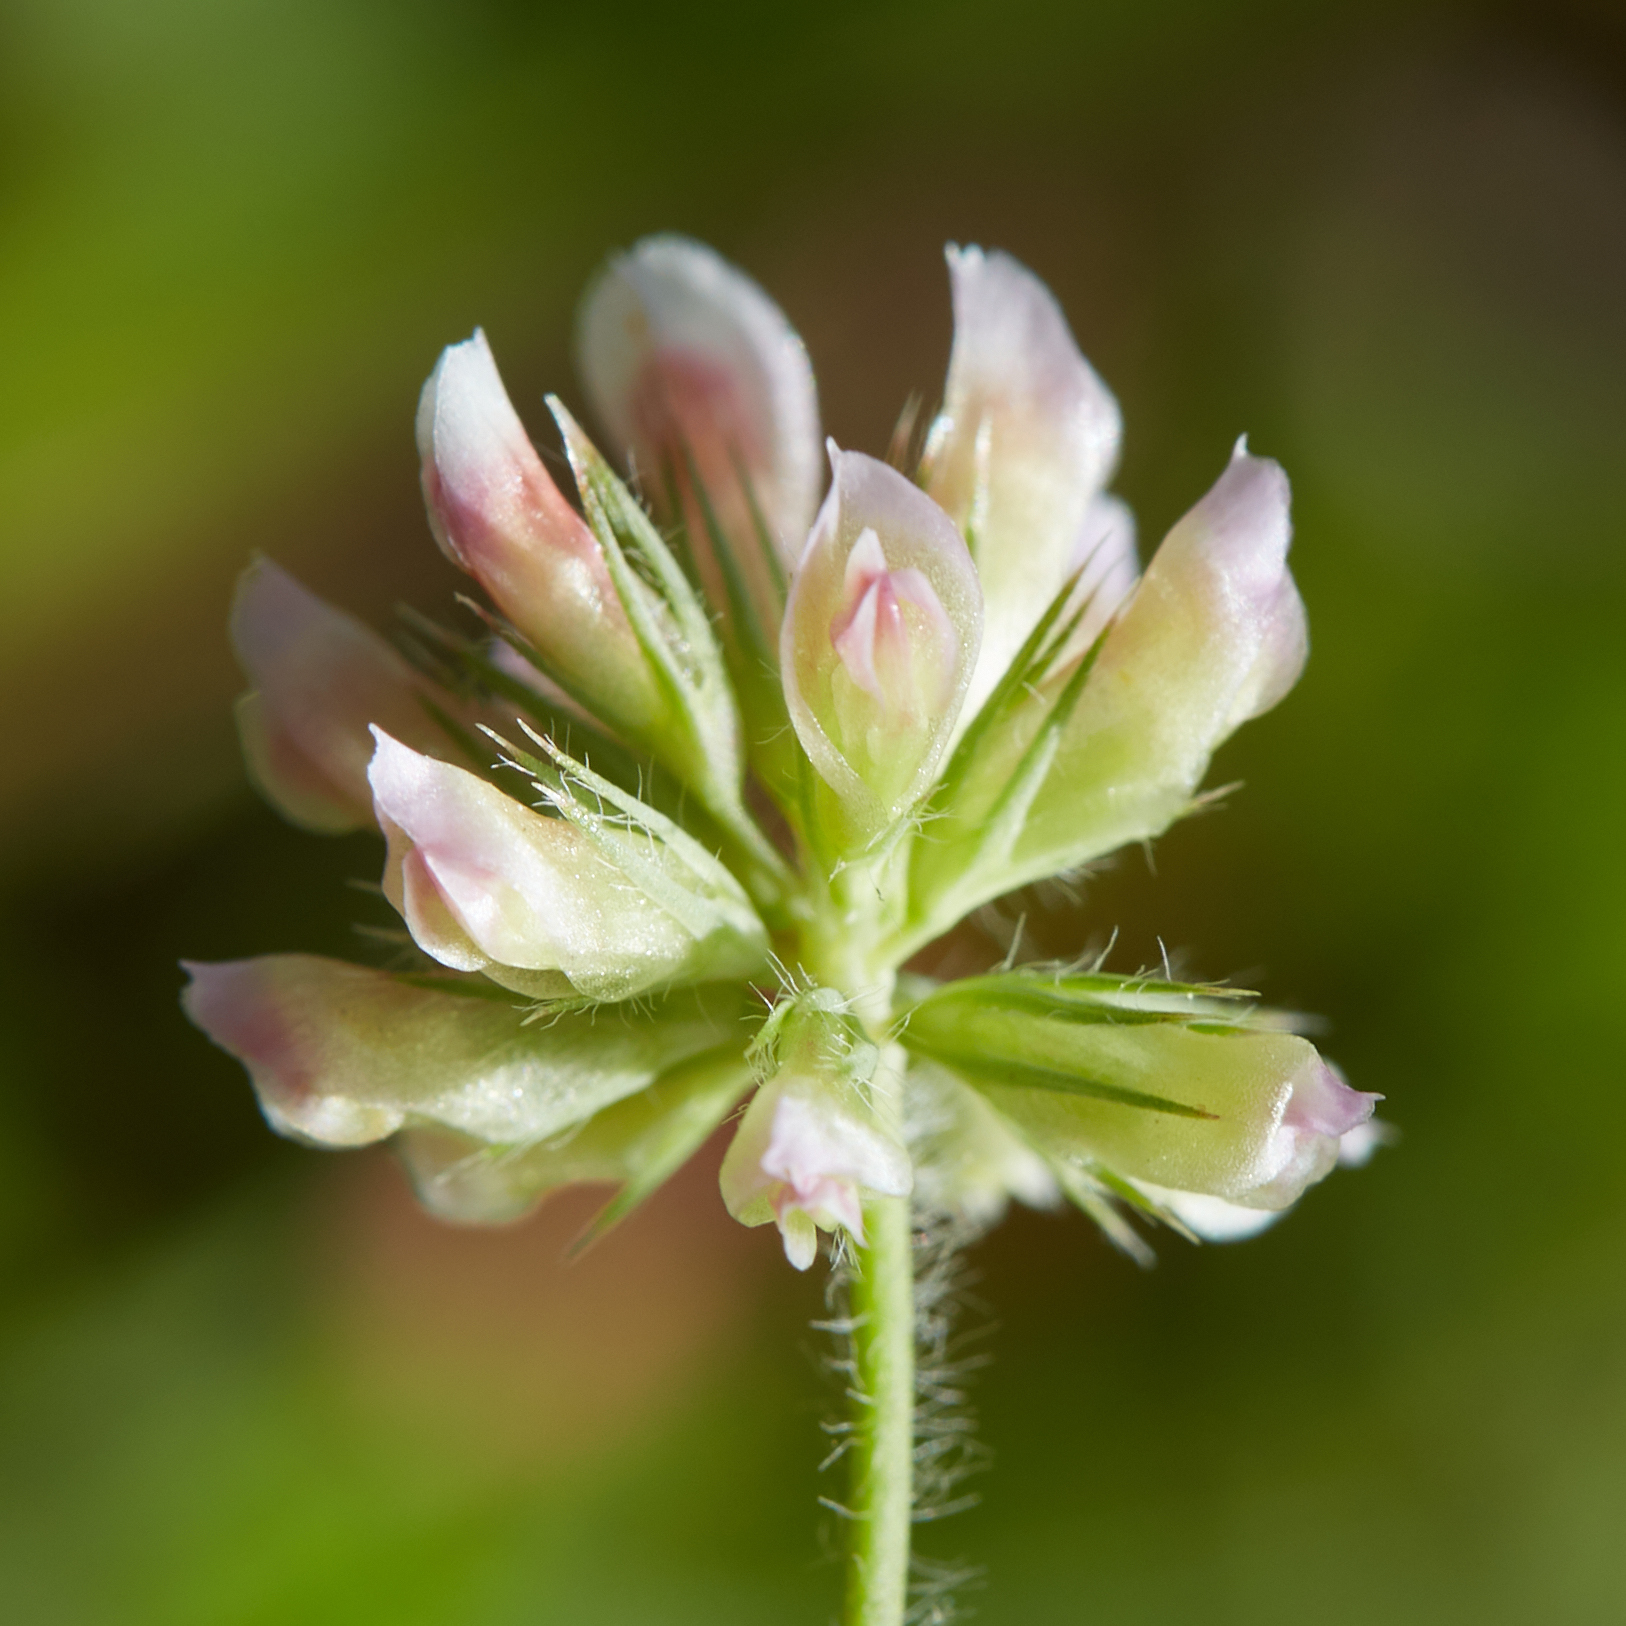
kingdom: Plantae
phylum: Tracheophyta
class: Magnoliopsida
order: Fabales
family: Fabaceae
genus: Trifolium
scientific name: Trifolium bifidum
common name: Notch-leaf clover
